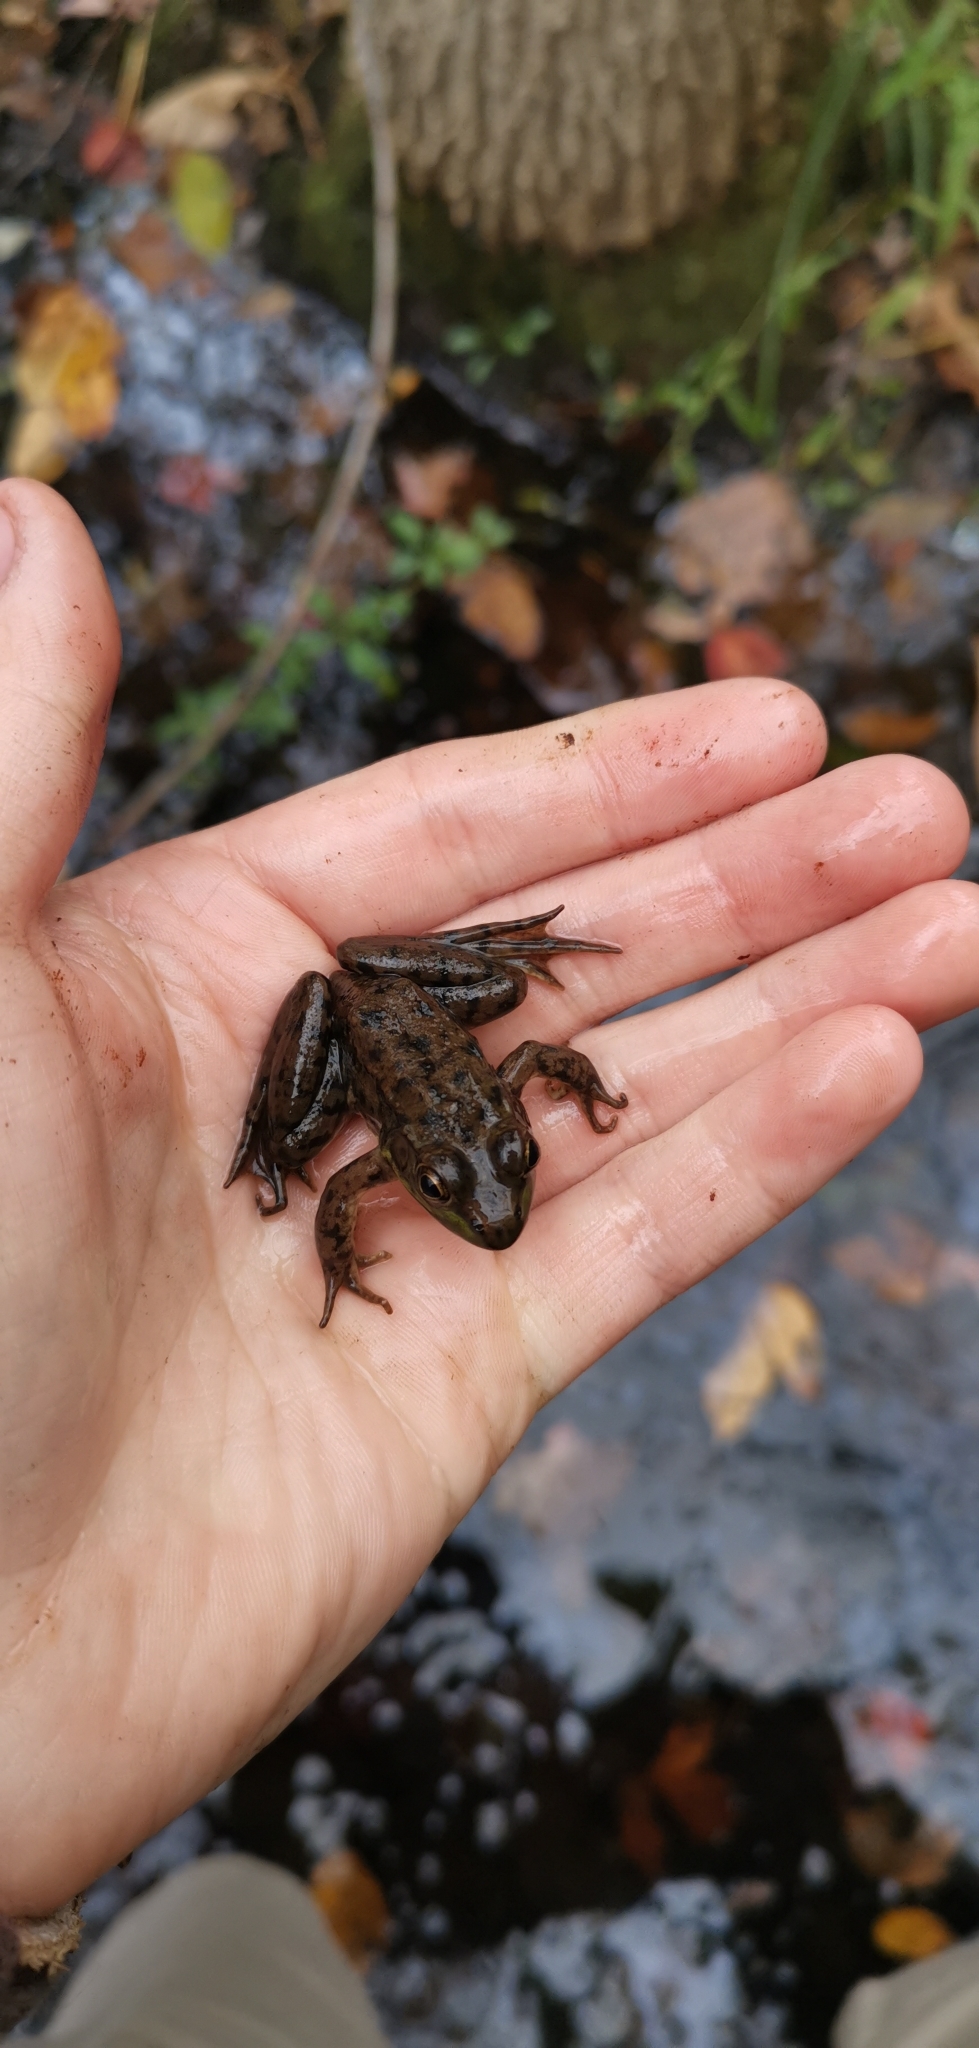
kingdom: Animalia
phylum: Chordata
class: Amphibia
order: Anura
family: Ranidae
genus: Lithobates
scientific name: Lithobates clamitans
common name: Green frog
